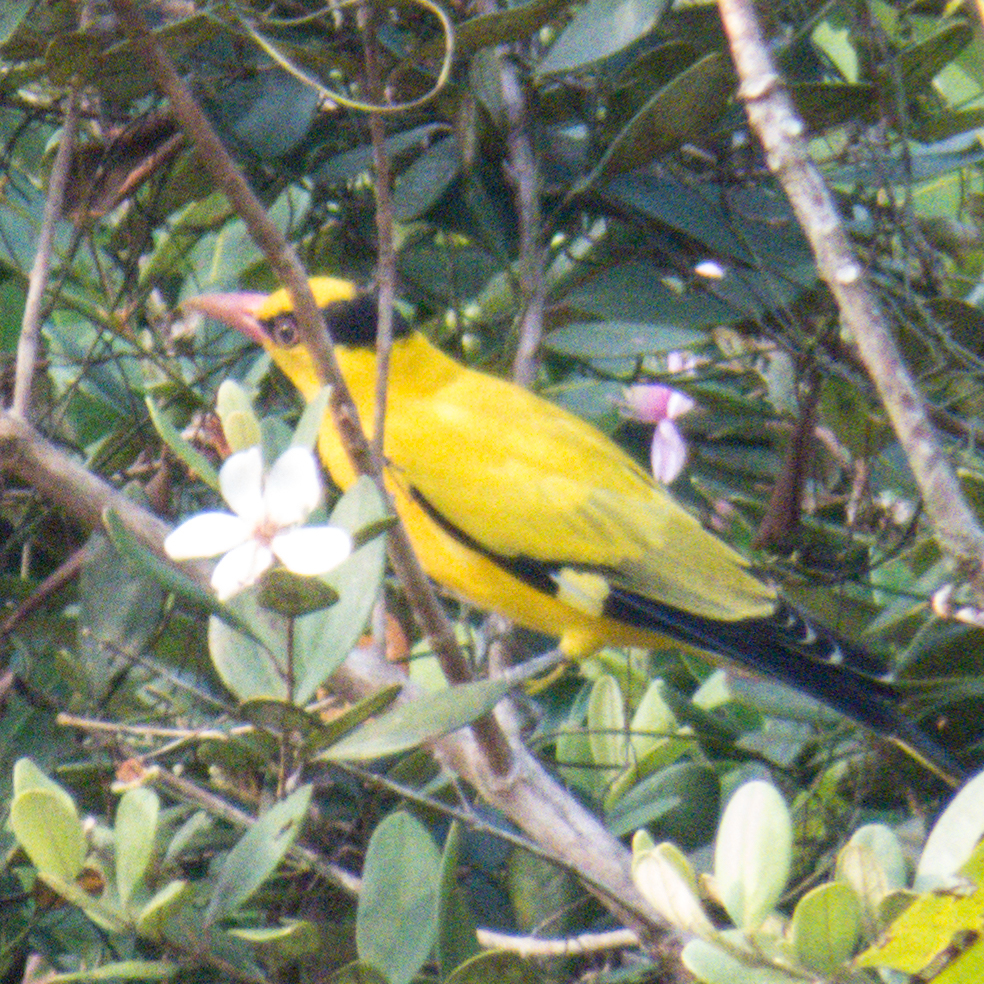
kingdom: Animalia
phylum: Chordata
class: Aves
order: Passeriformes
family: Oriolidae
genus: Oriolus
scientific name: Oriolus chinensis
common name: Black-naped oriole
